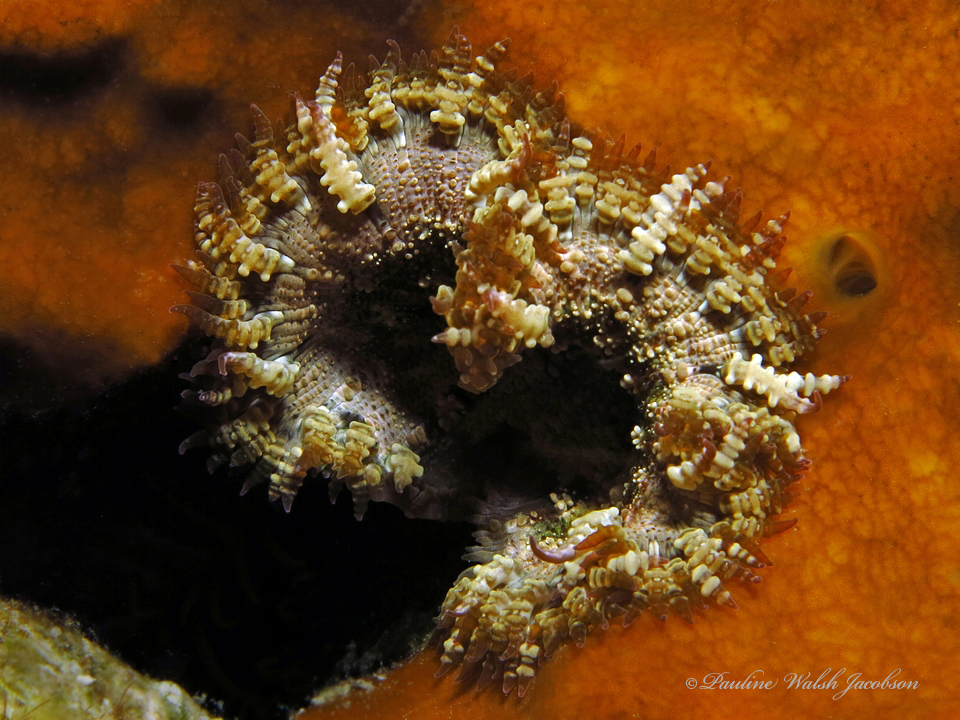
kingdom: Animalia
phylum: Cnidaria
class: Anthozoa
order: Actiniaria
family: Phymanthidae
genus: Phymanthus
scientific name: Phymanthus crucifer
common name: Red beaded anemone
